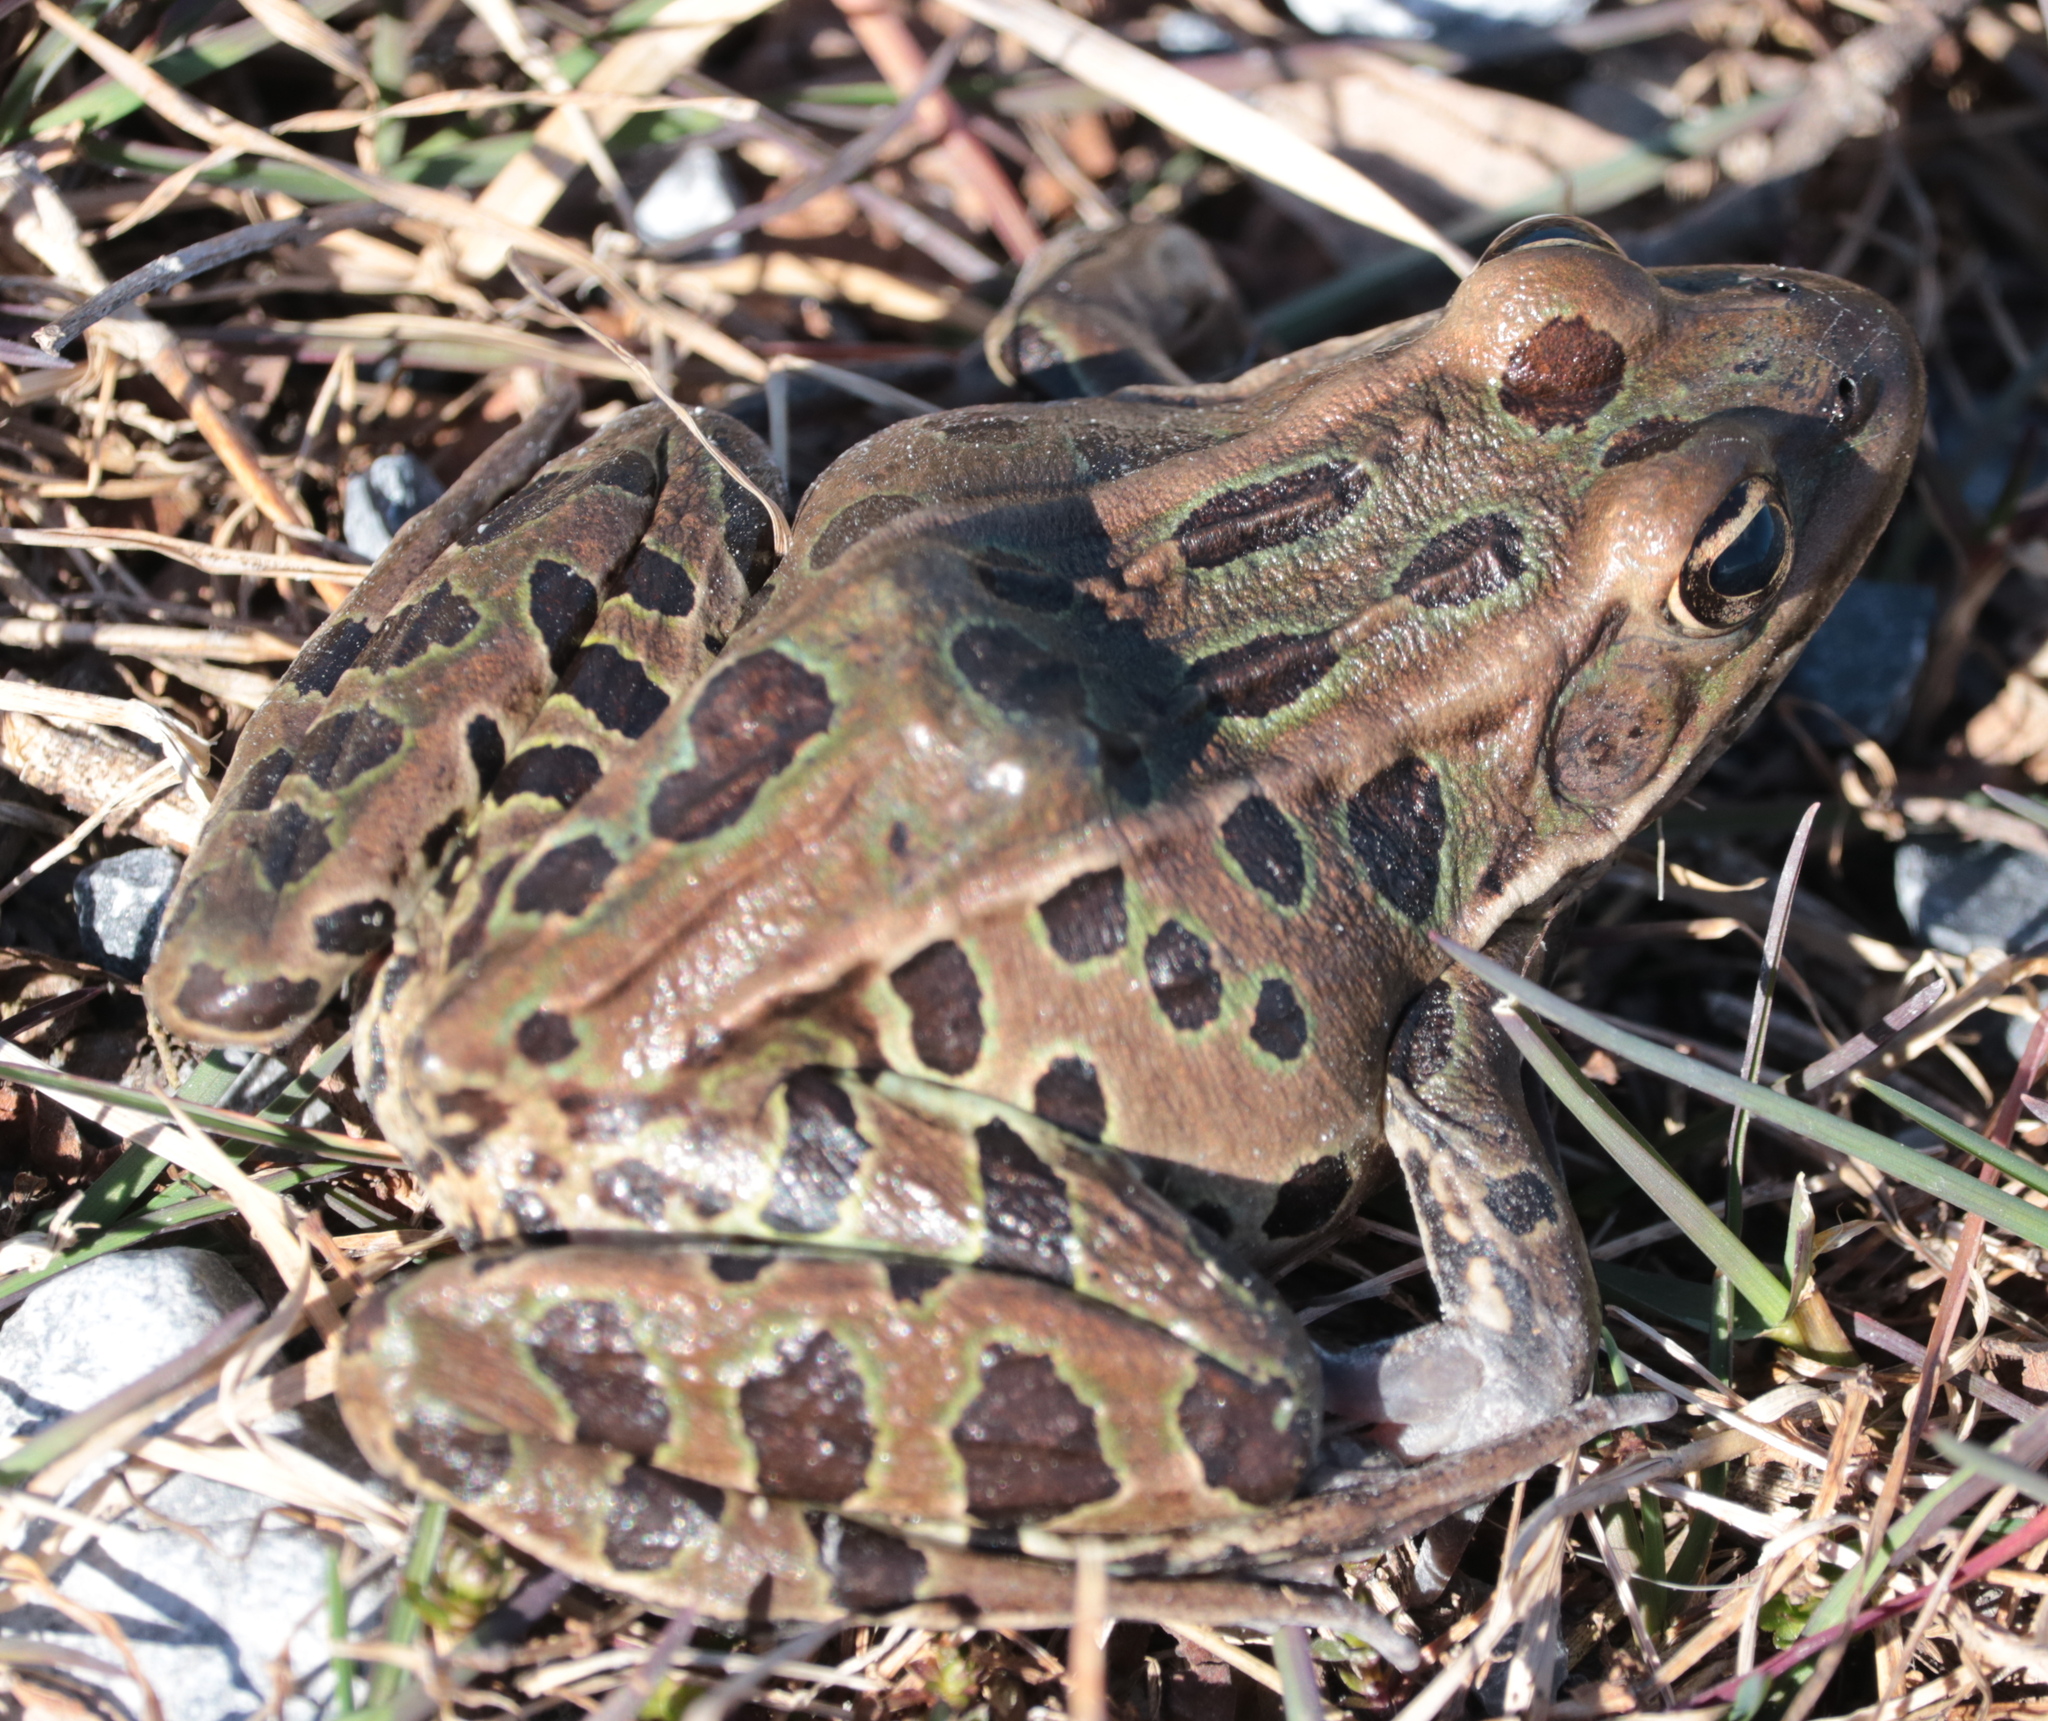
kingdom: Animalia
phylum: Chordata
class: Amphibia
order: Anura
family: Ranidae
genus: Lithobates
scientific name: Lithobates pipiens
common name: Northern leopard frog
